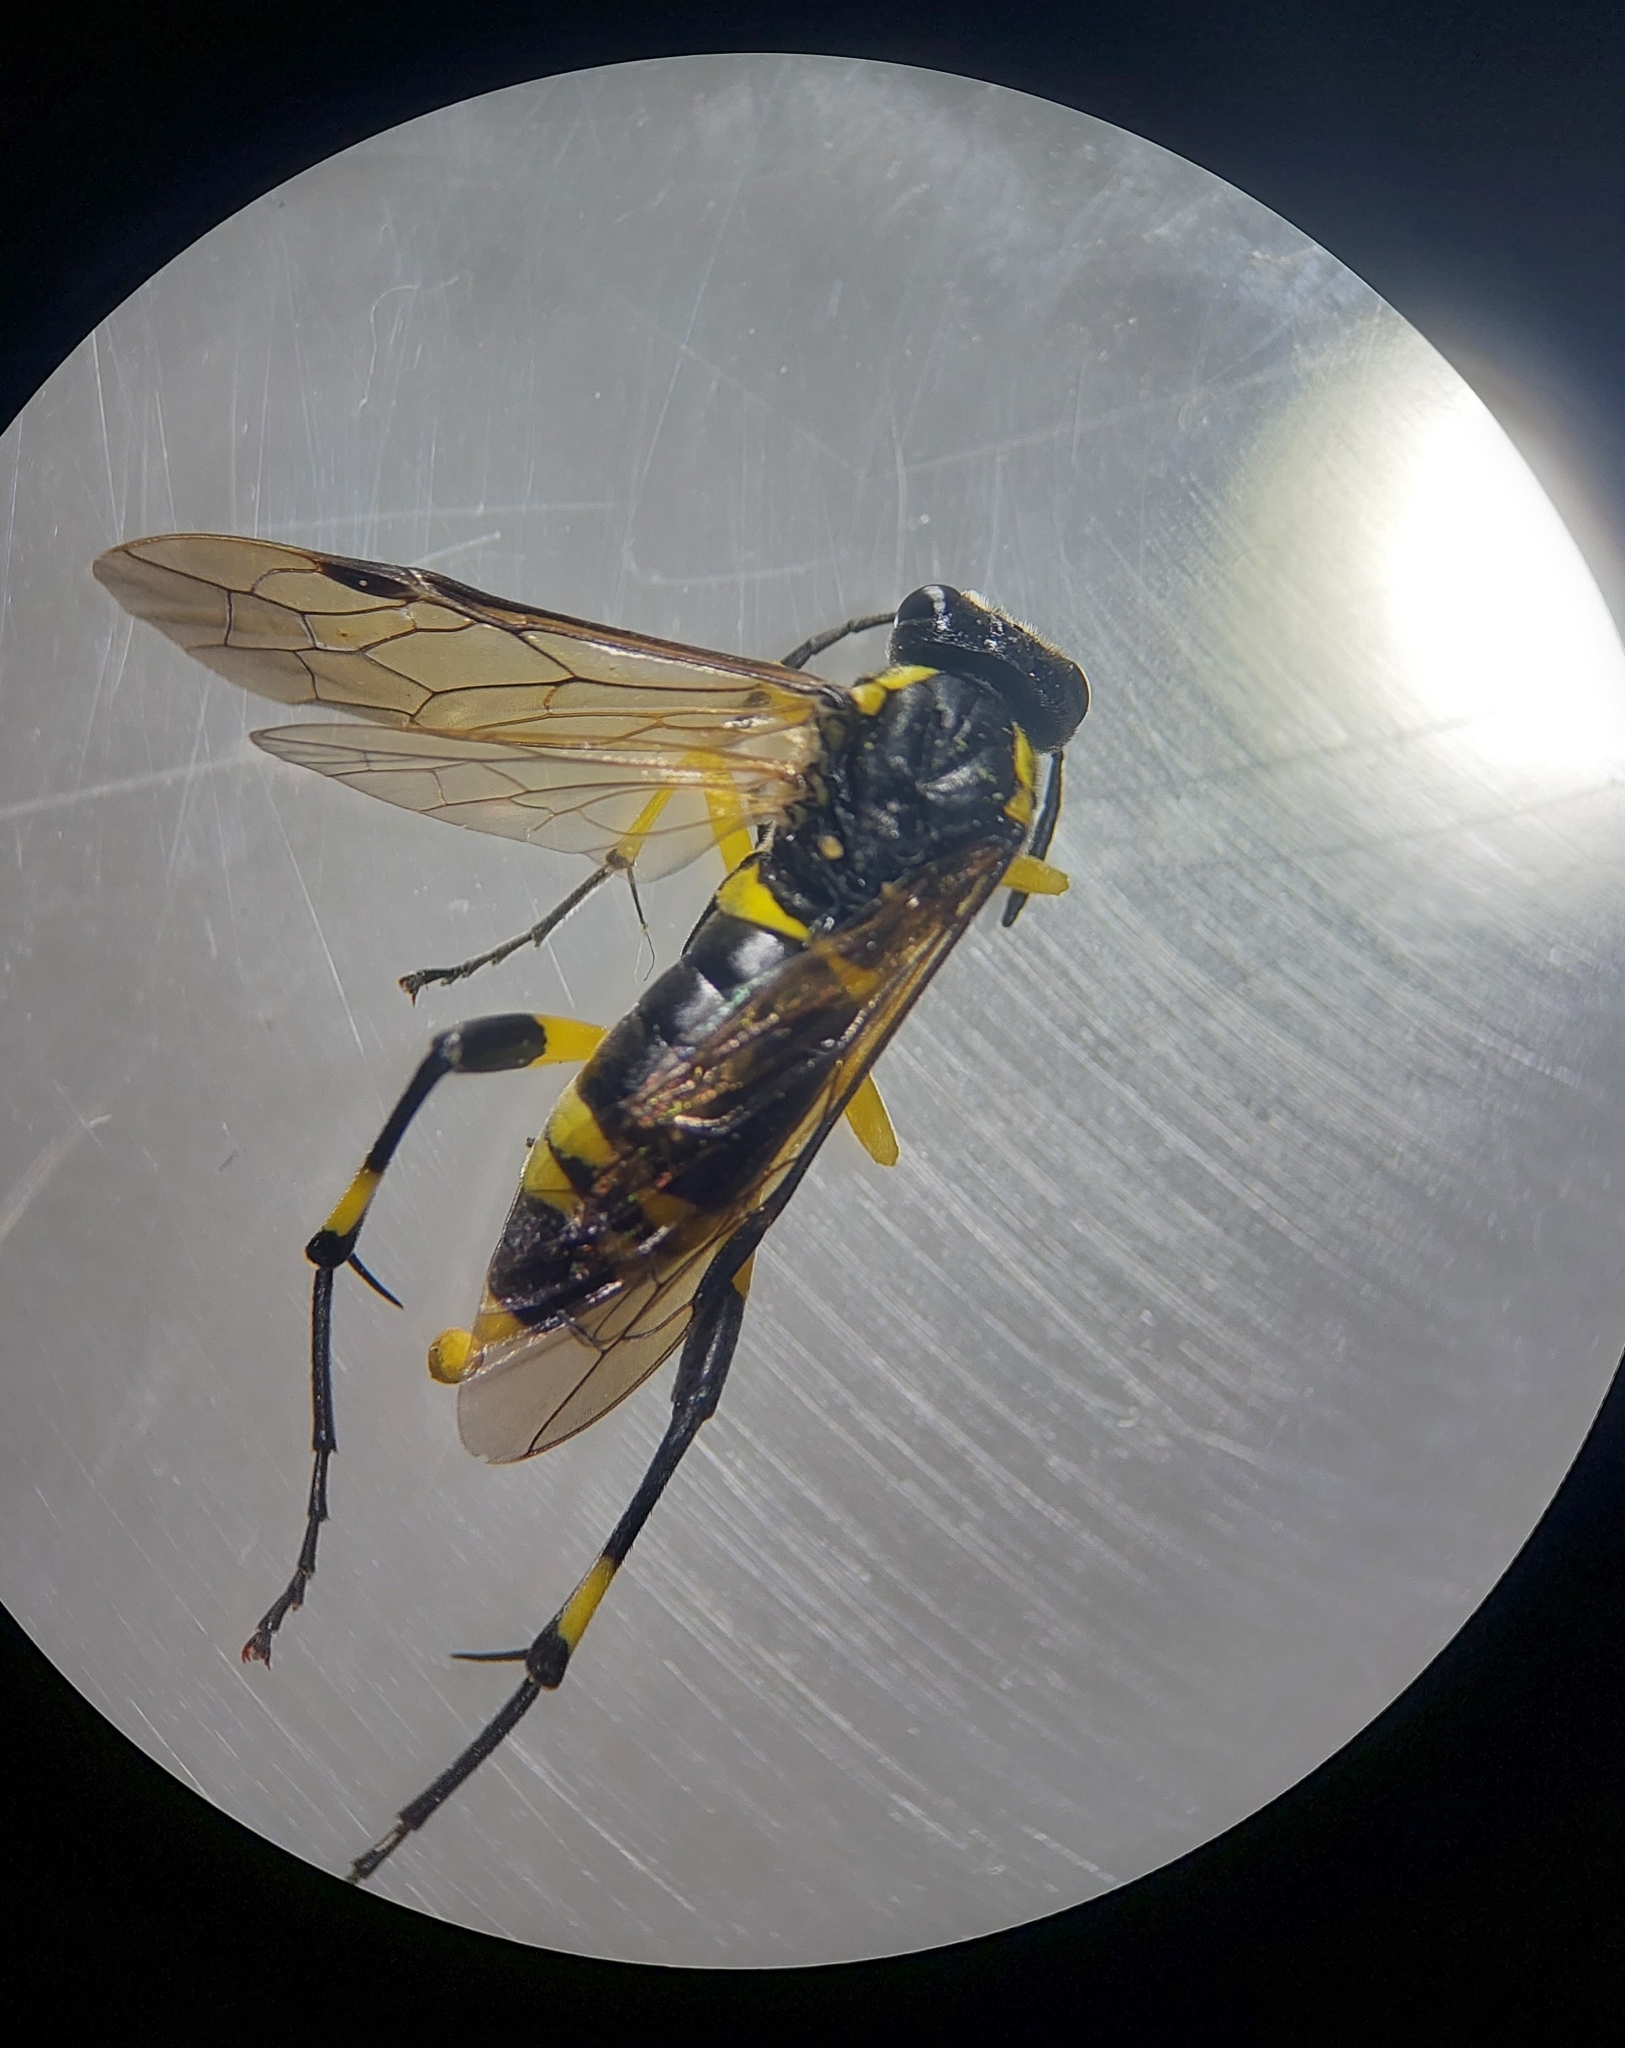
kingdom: Animalia
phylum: Arthropoda
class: Insecta
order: Hymenoptera
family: Tenthredinidae
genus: Macrophya
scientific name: Macrophya montana
